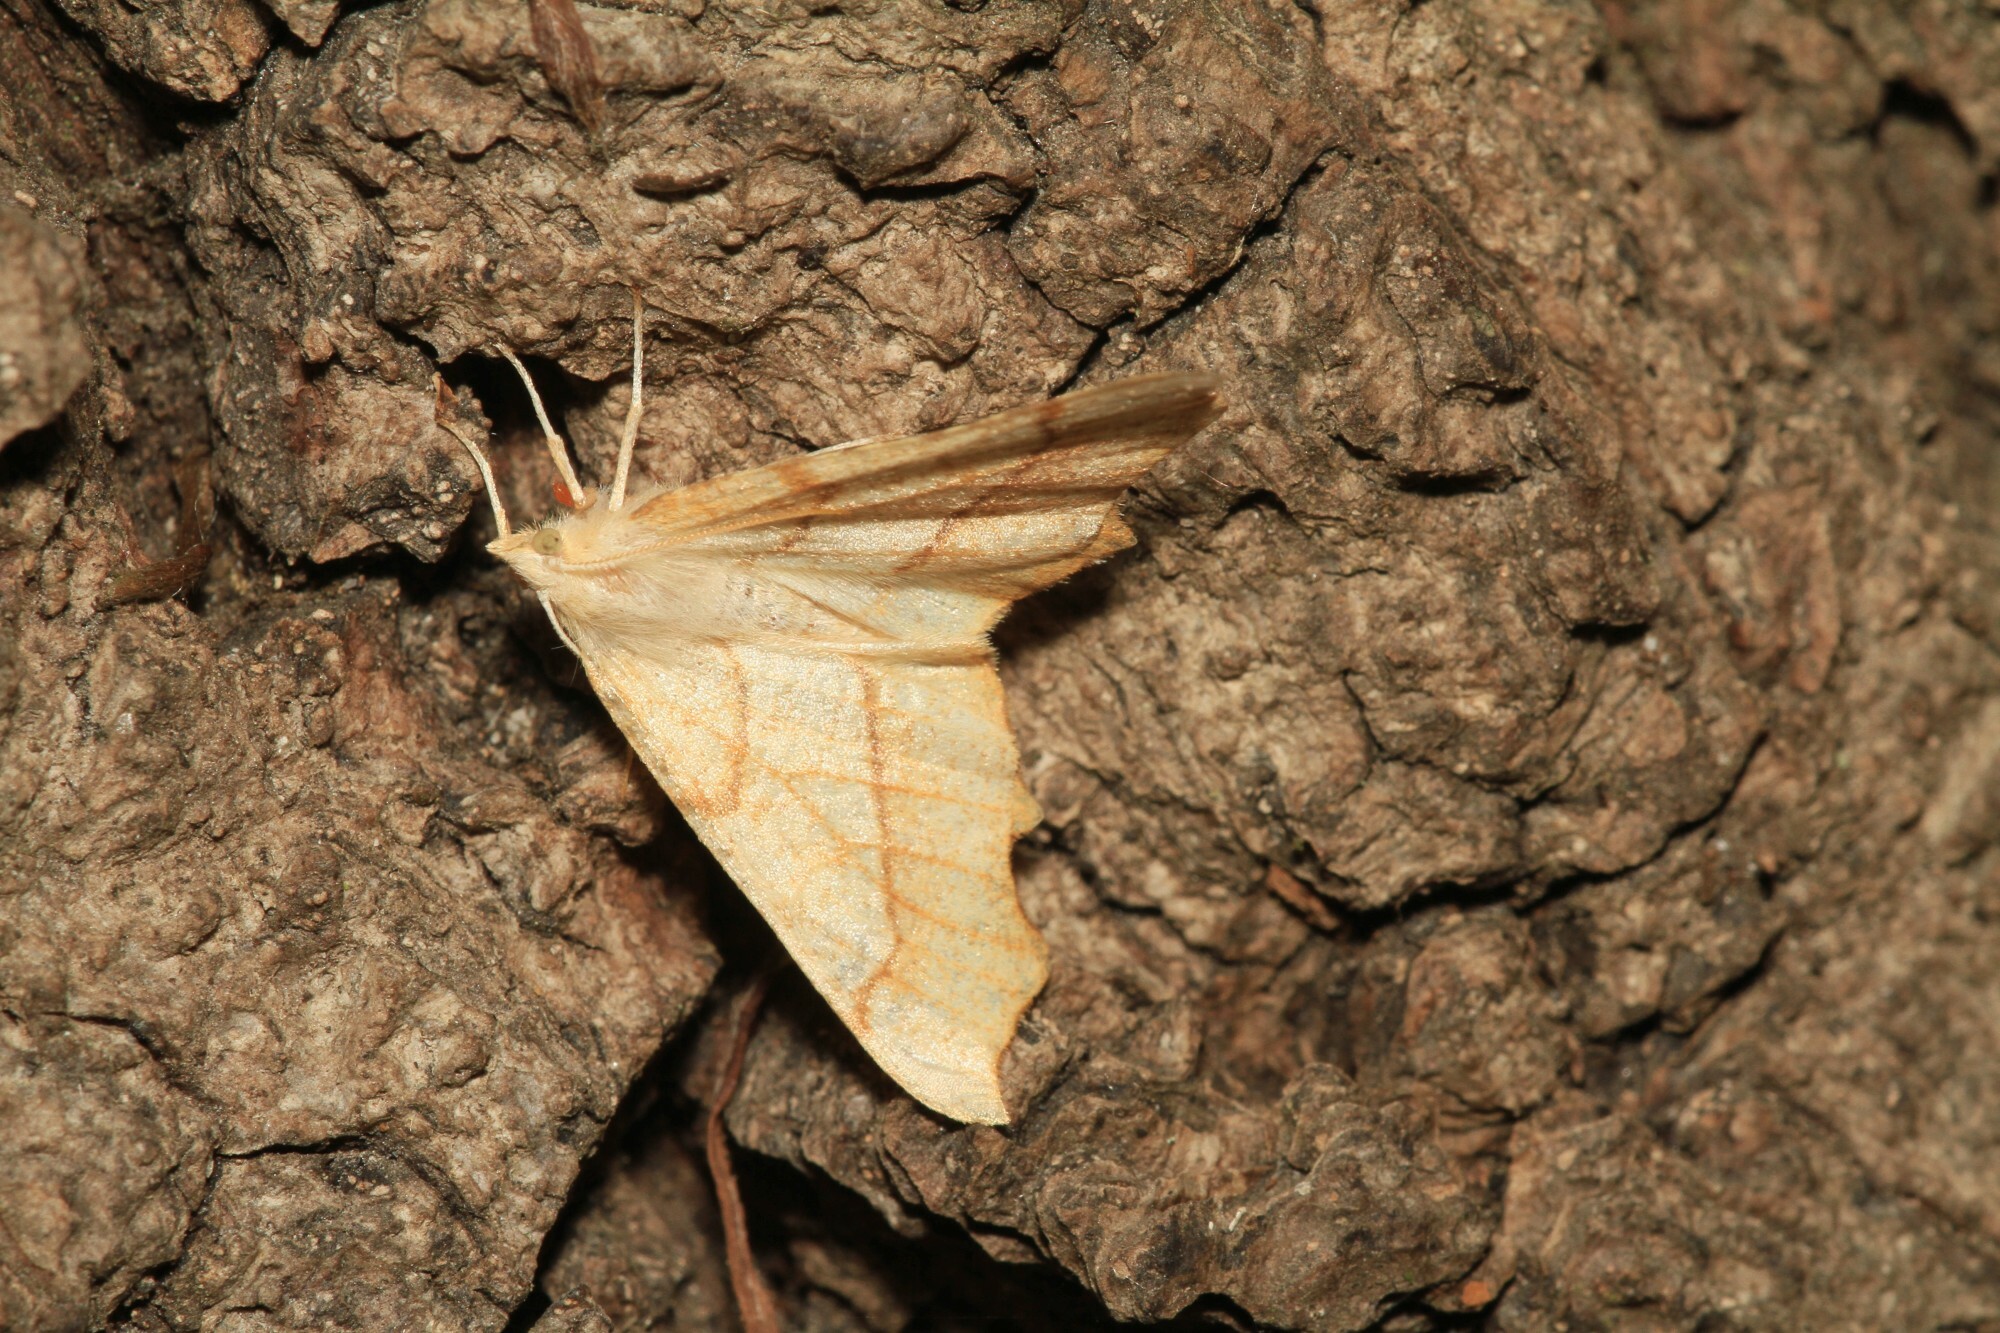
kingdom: Animalia
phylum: Arthropoda
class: Insecta
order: Lepidoptera
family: Geometridae
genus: Ennomos
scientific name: Ennomos quercinaria
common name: August thorn
